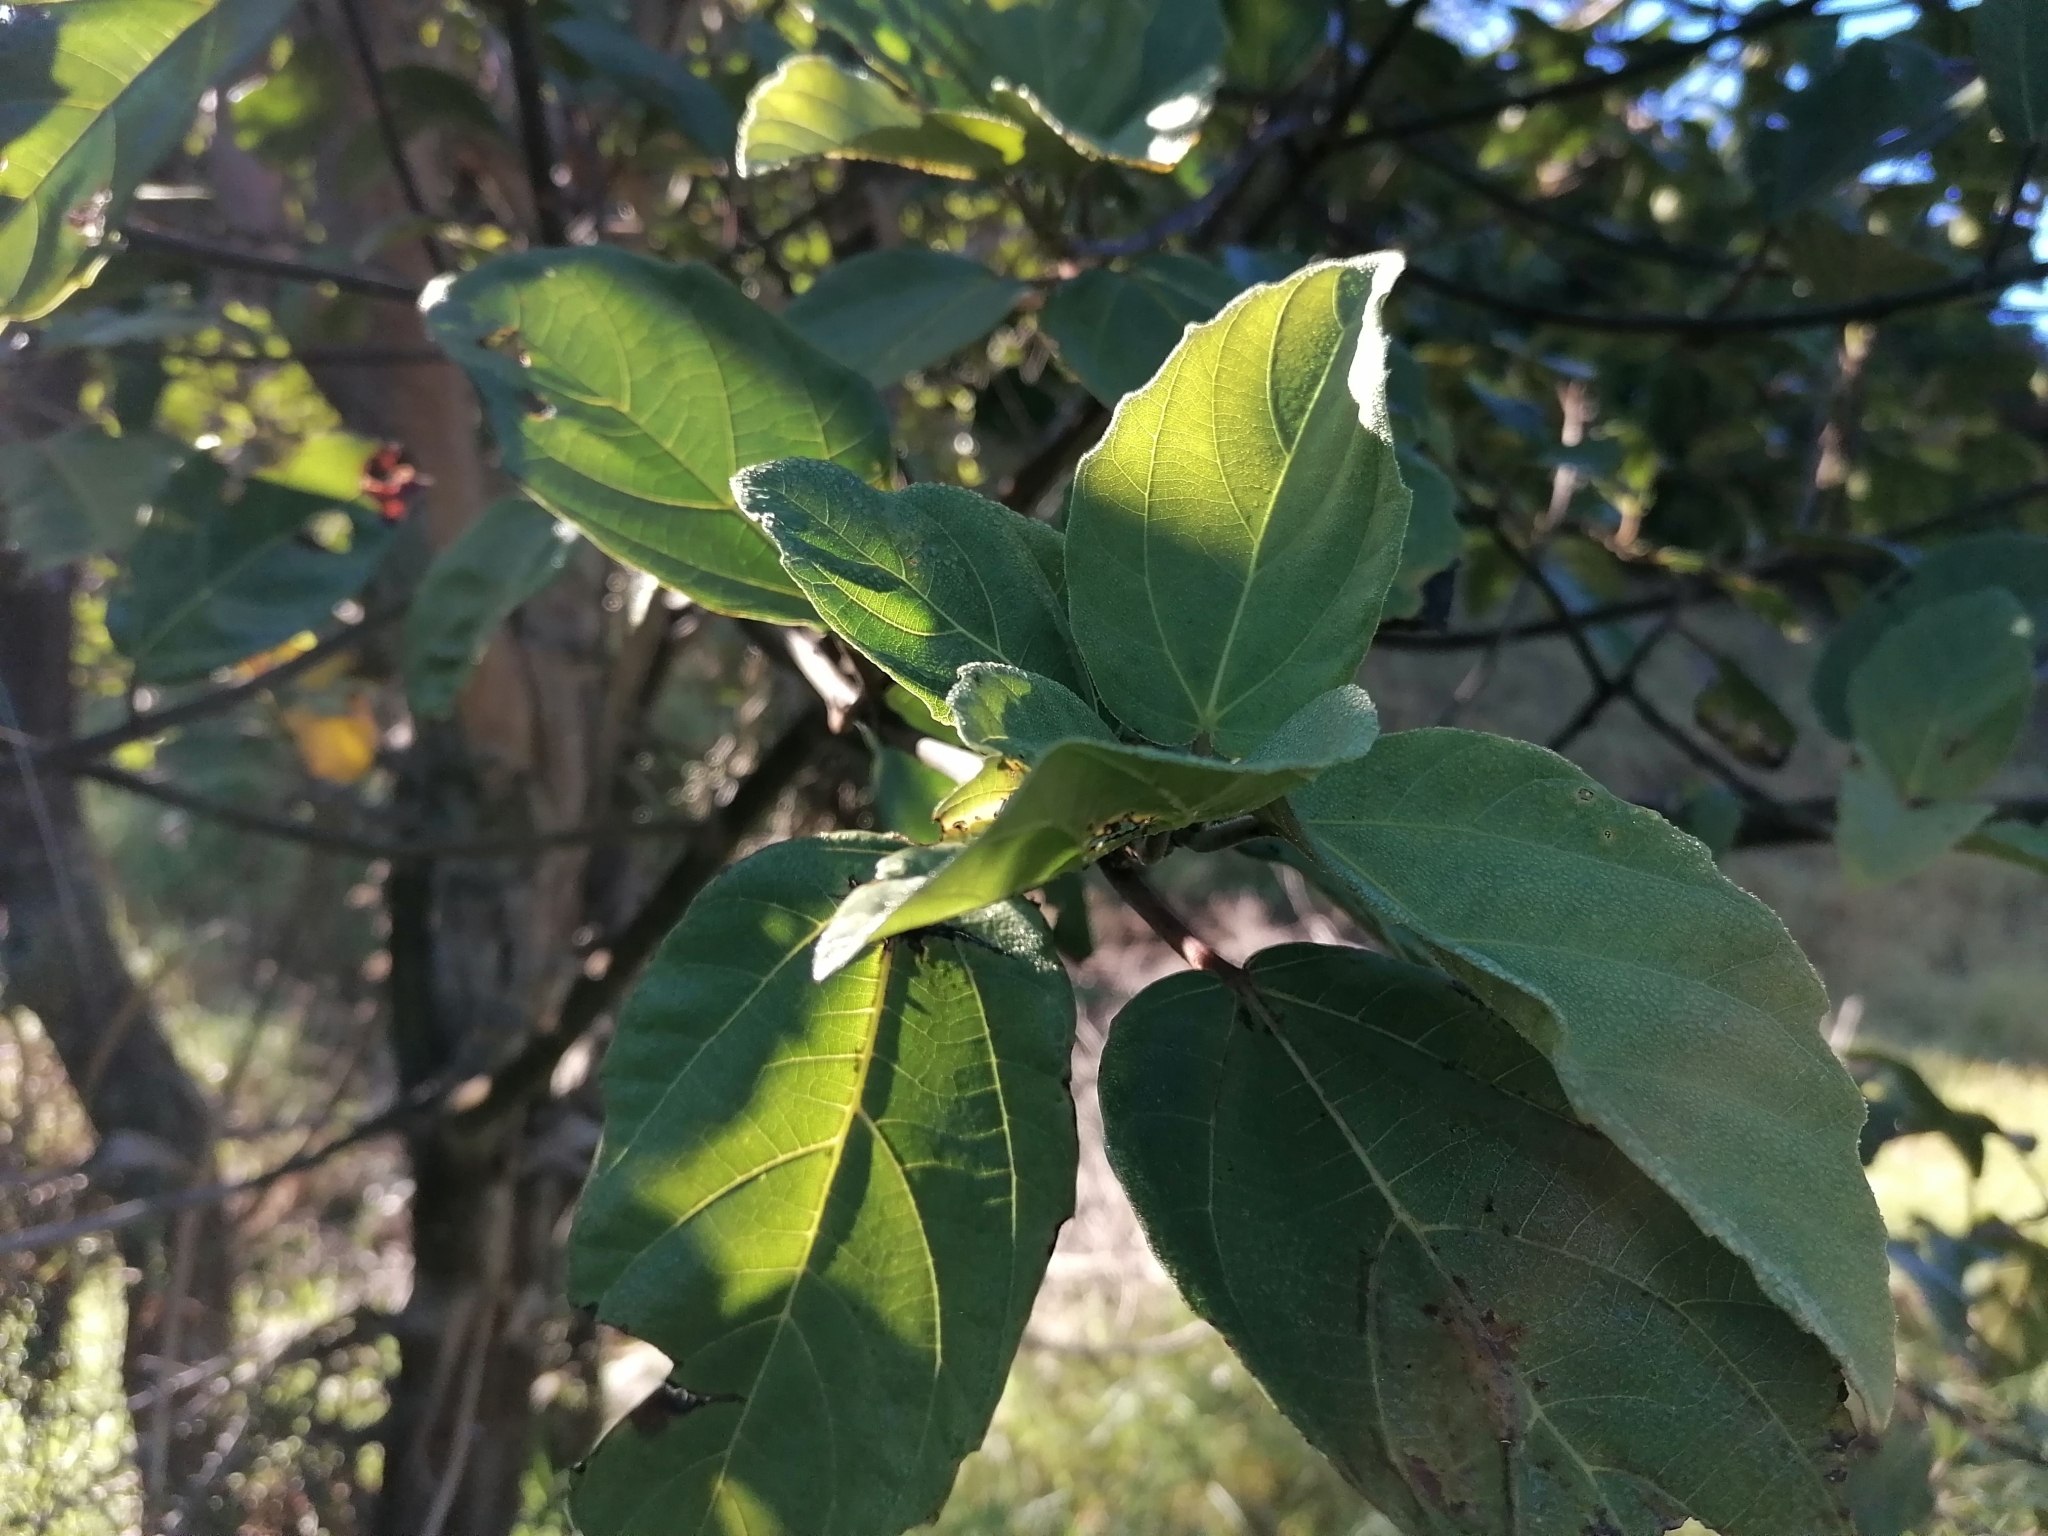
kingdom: Plantae
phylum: Tracheophyta
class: Magnoliopsida
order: Rosales
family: Moraceae
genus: Ficus
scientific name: Ficus sur
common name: Cape fig
